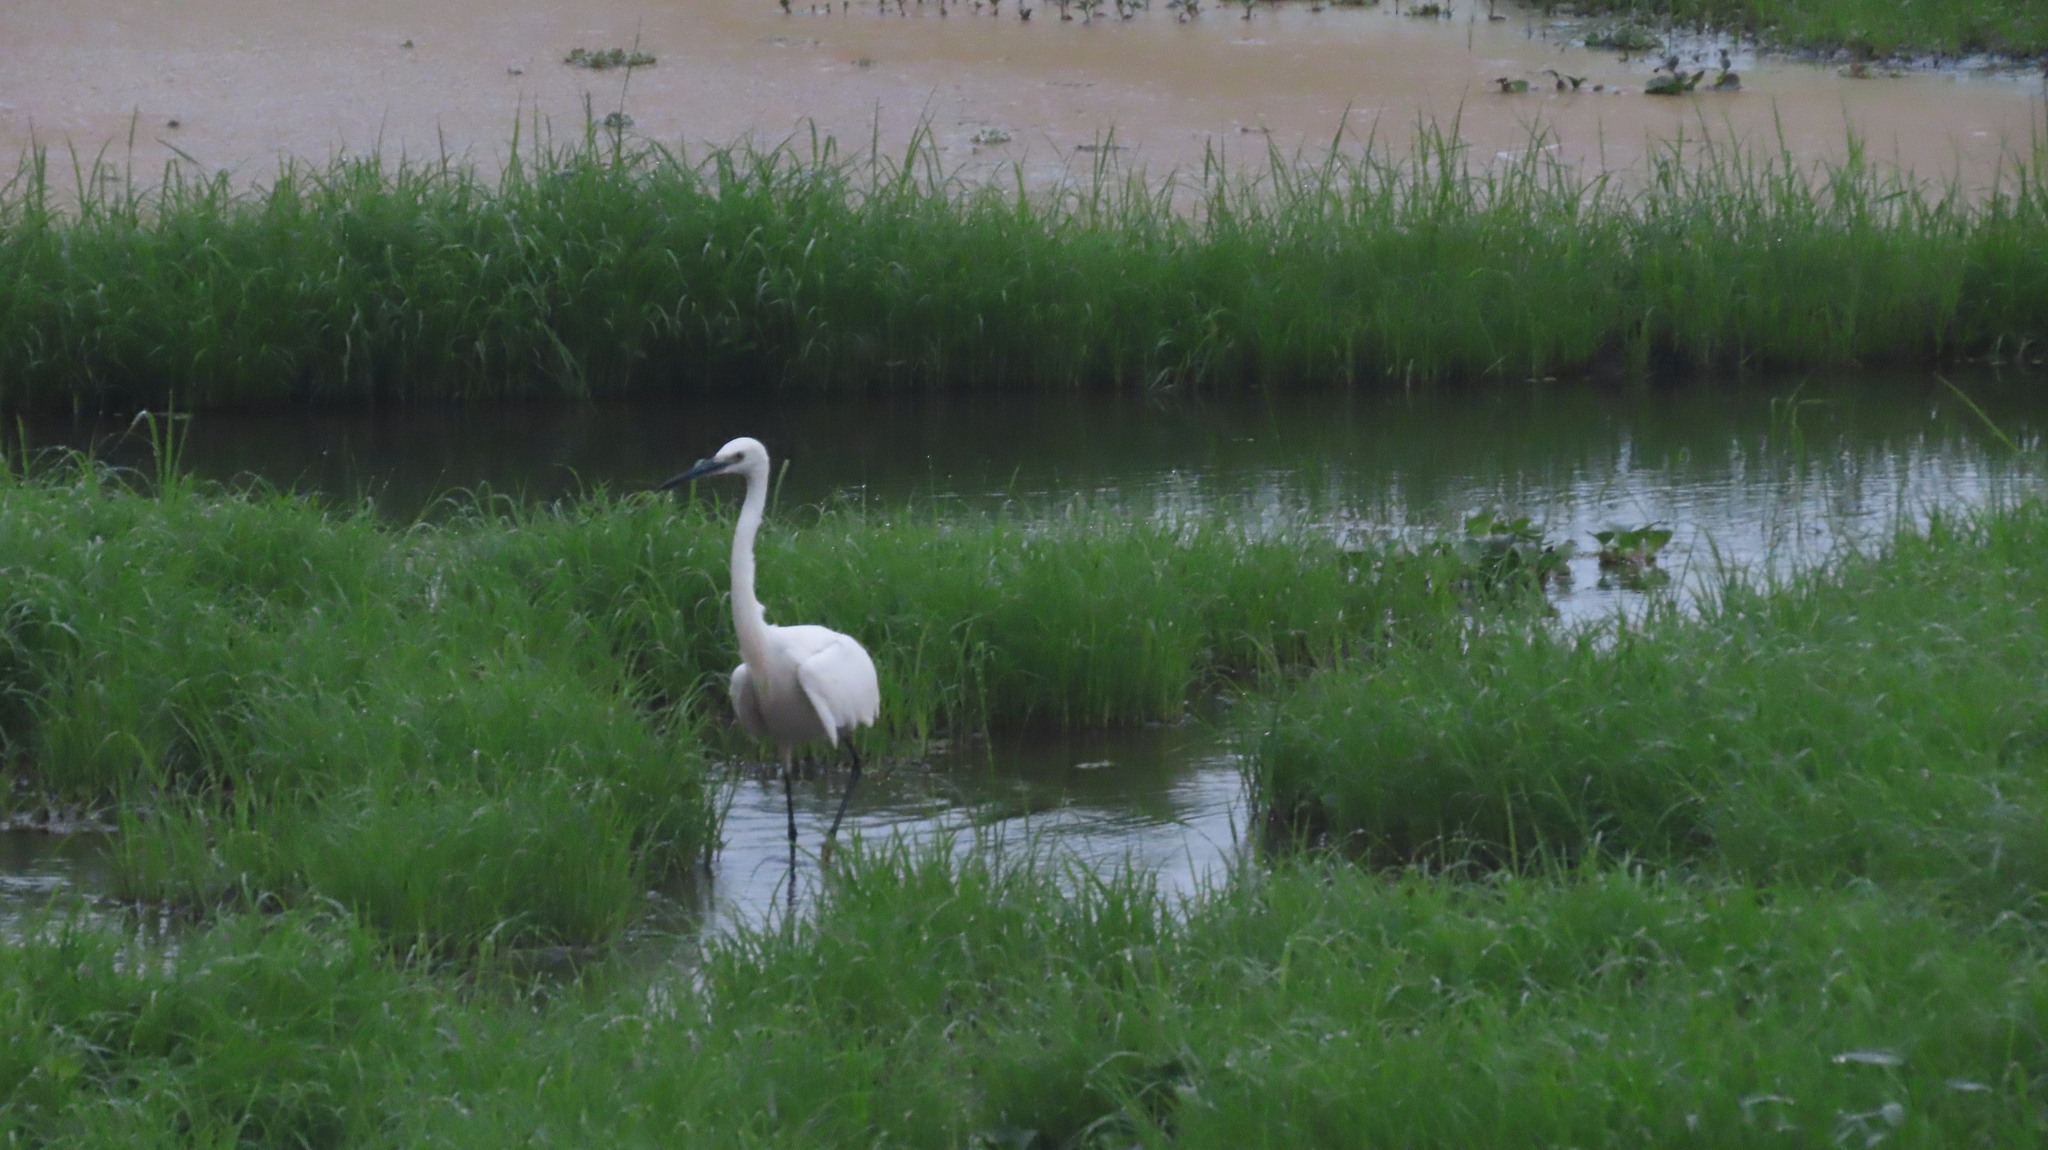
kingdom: Animalia
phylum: Chordata
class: Aves
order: Pelecaniformes
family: Ardeidae
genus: Egretta
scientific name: Egretta garzetta
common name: Little egret
